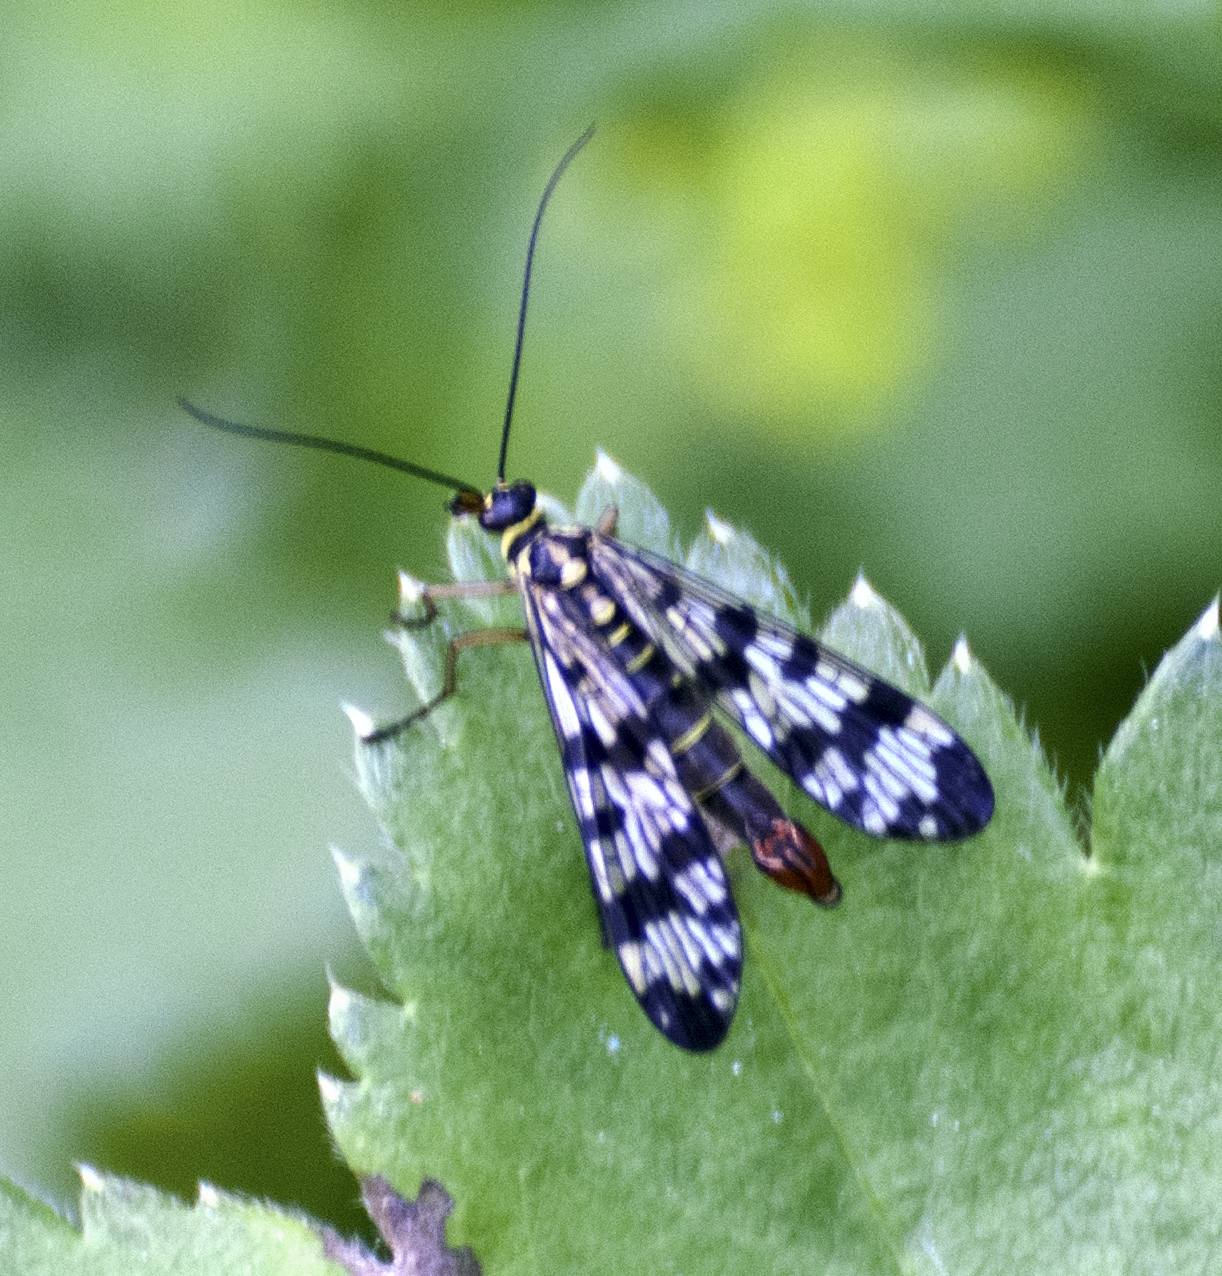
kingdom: Animalia
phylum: Arthropoda
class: Insecta
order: Mecoptera
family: Panorpidae
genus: Panorpa
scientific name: Panorpa communis
